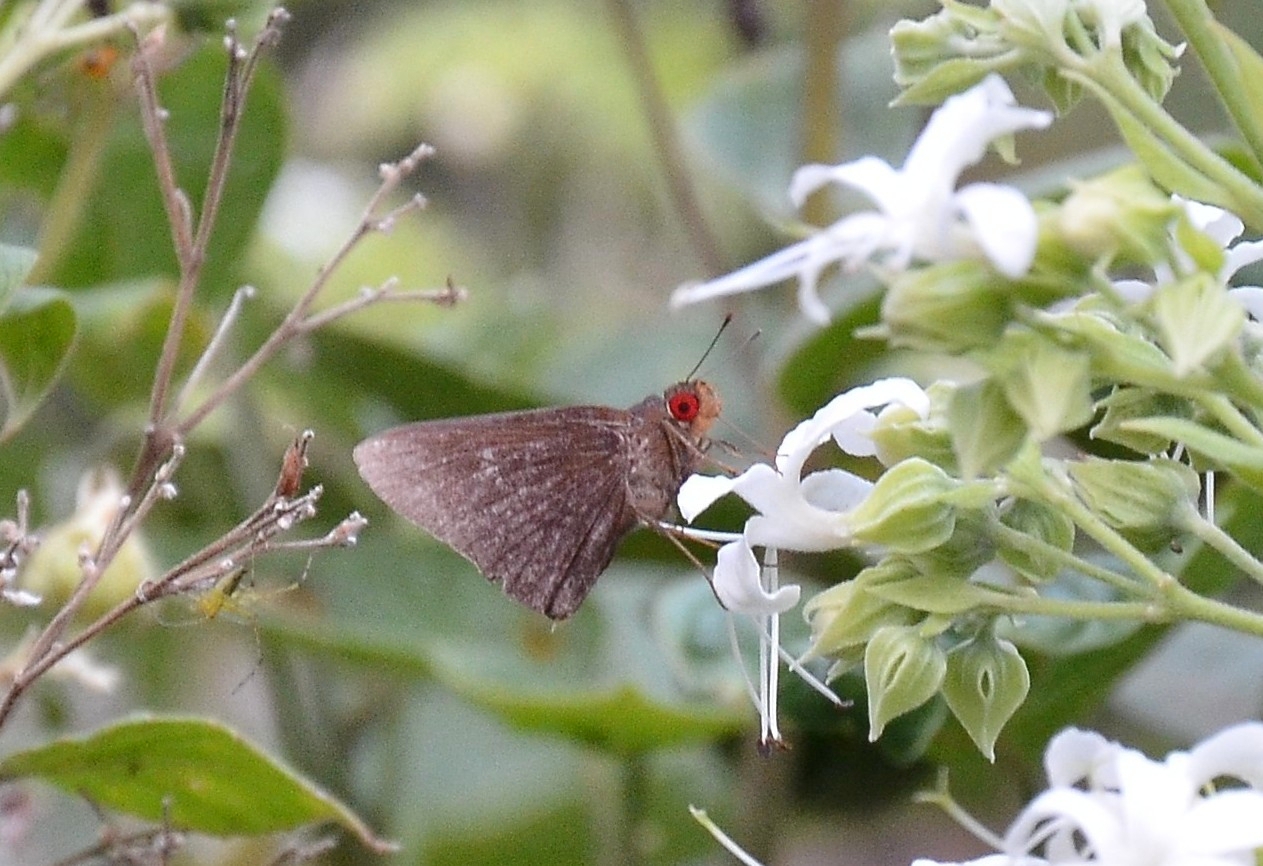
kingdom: Animalia
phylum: Arthropoda
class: Insecta
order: Lepidoptera
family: Hesperiidae
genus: Matapa
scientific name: Matapa aria
